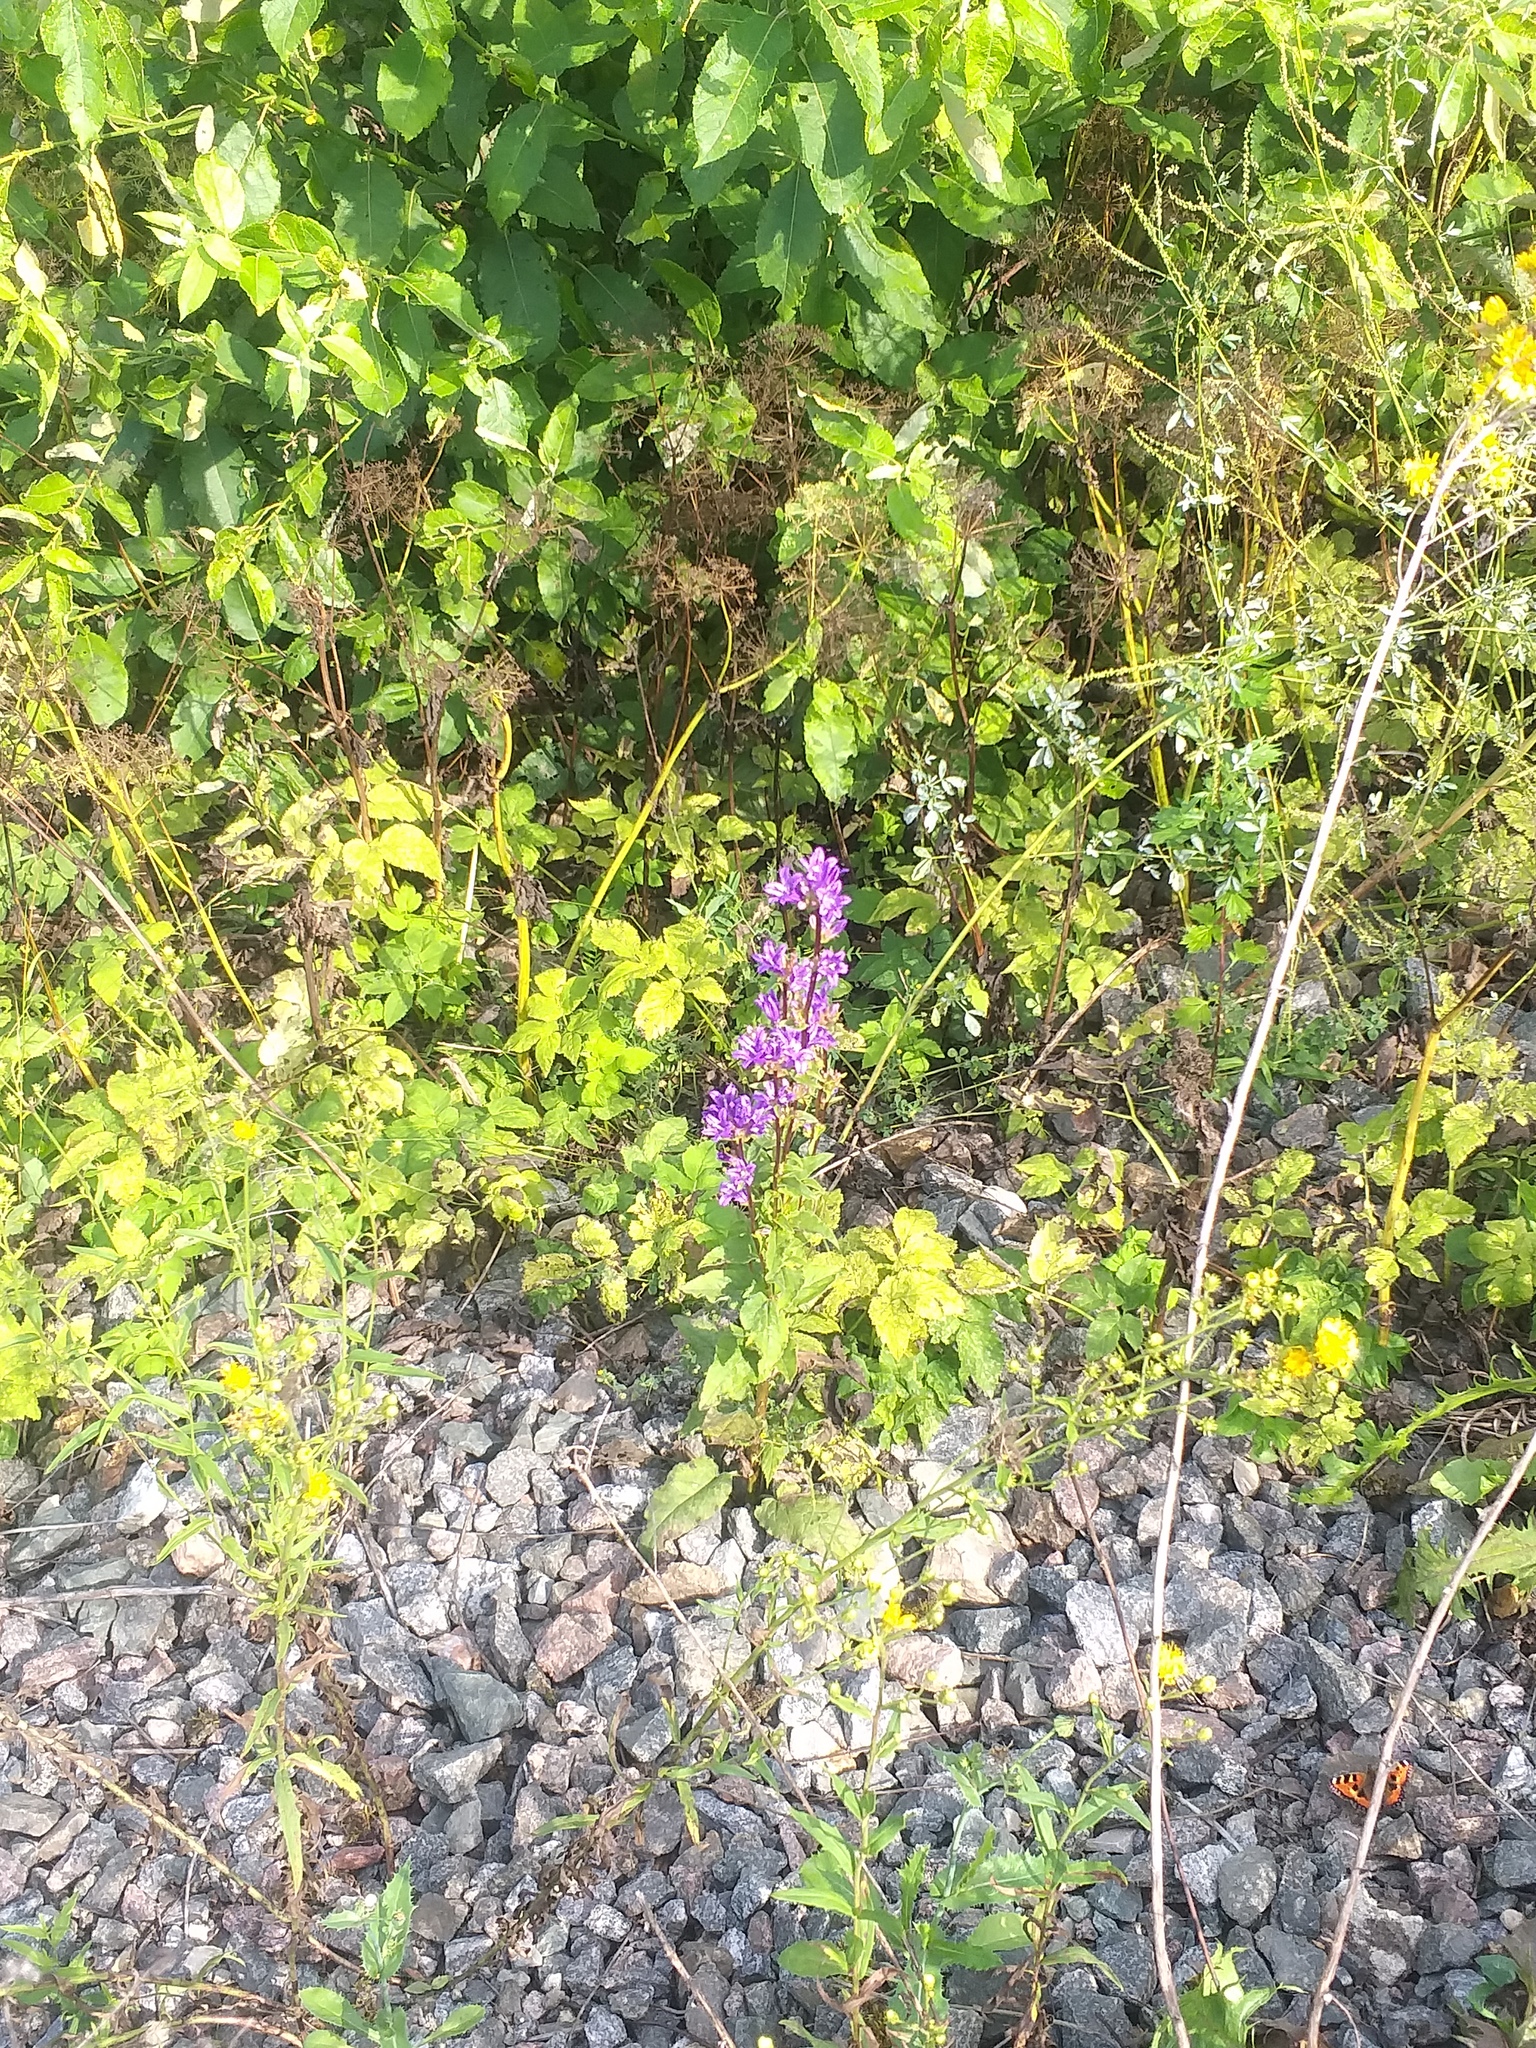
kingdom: Plantae
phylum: Tracheophyta
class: Magnoliopsida
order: Asterales
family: Campanulaceae
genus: Campanula
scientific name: Campanula glomerata
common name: Clustered bellflower
